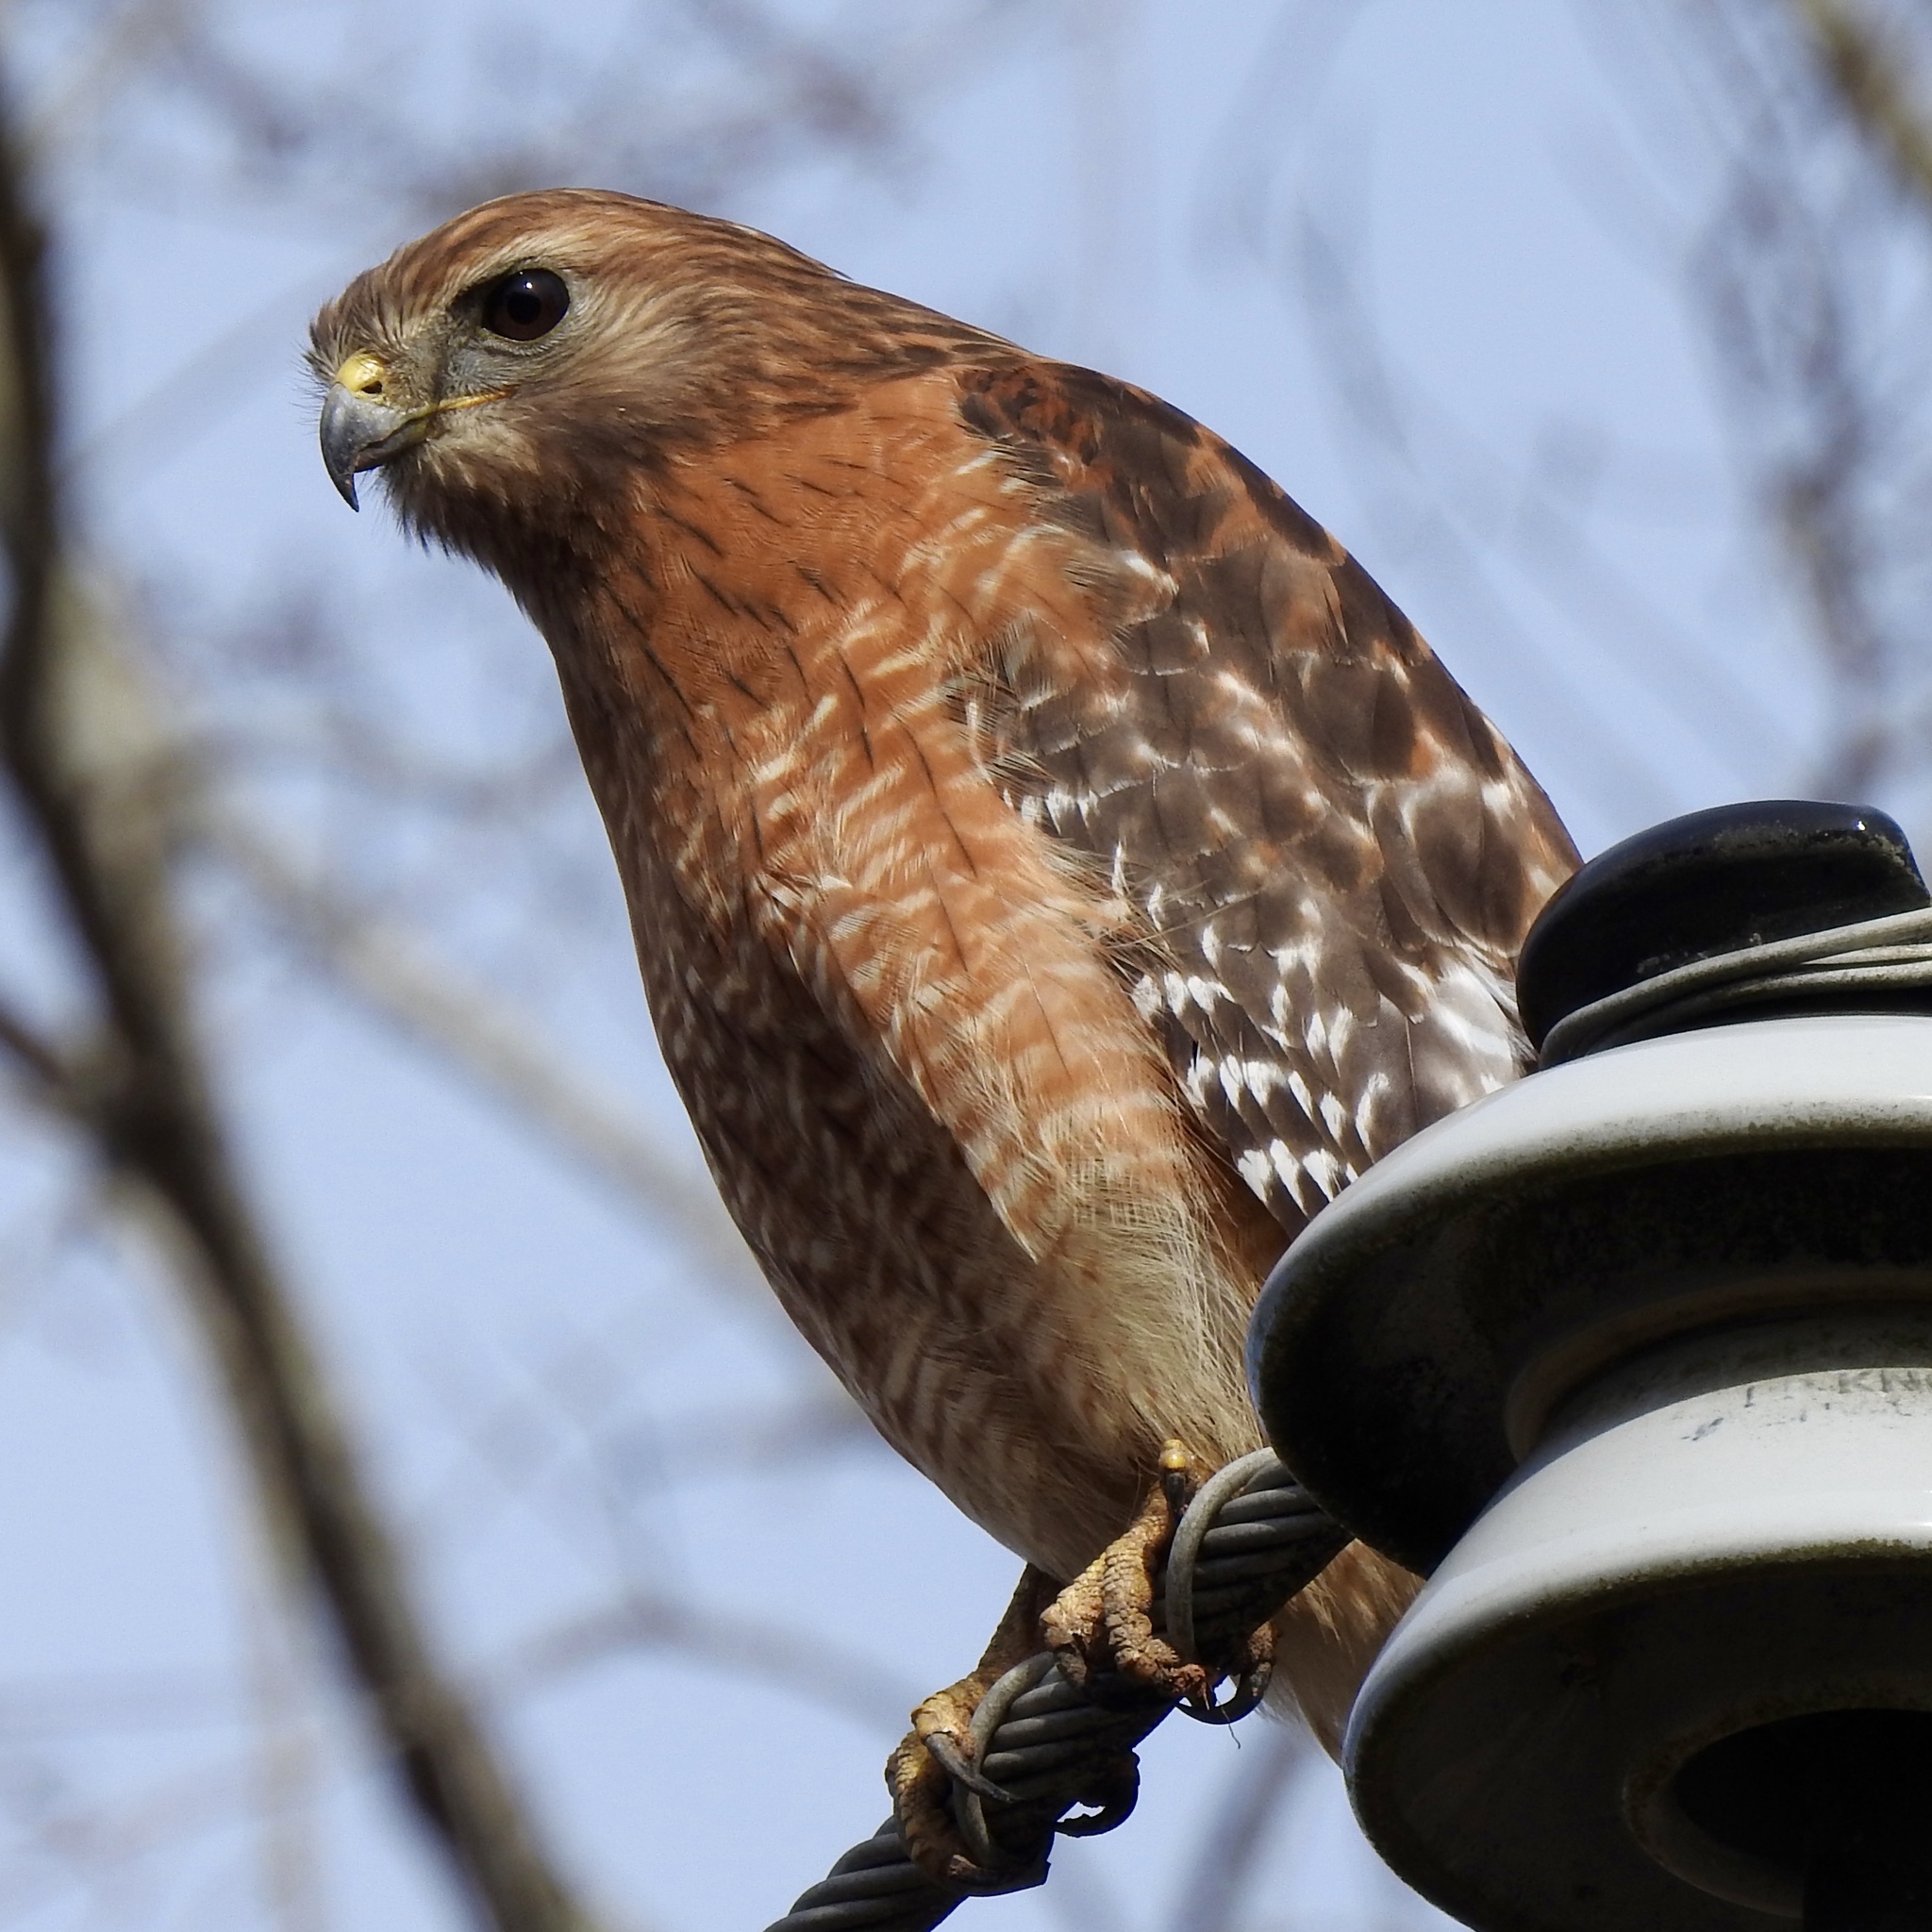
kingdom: Animalia
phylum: Chordata
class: Aves
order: Accipitriformes
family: Accipitridae
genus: Buteo
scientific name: Buteo lineatus
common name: Red-shouldered hawk
